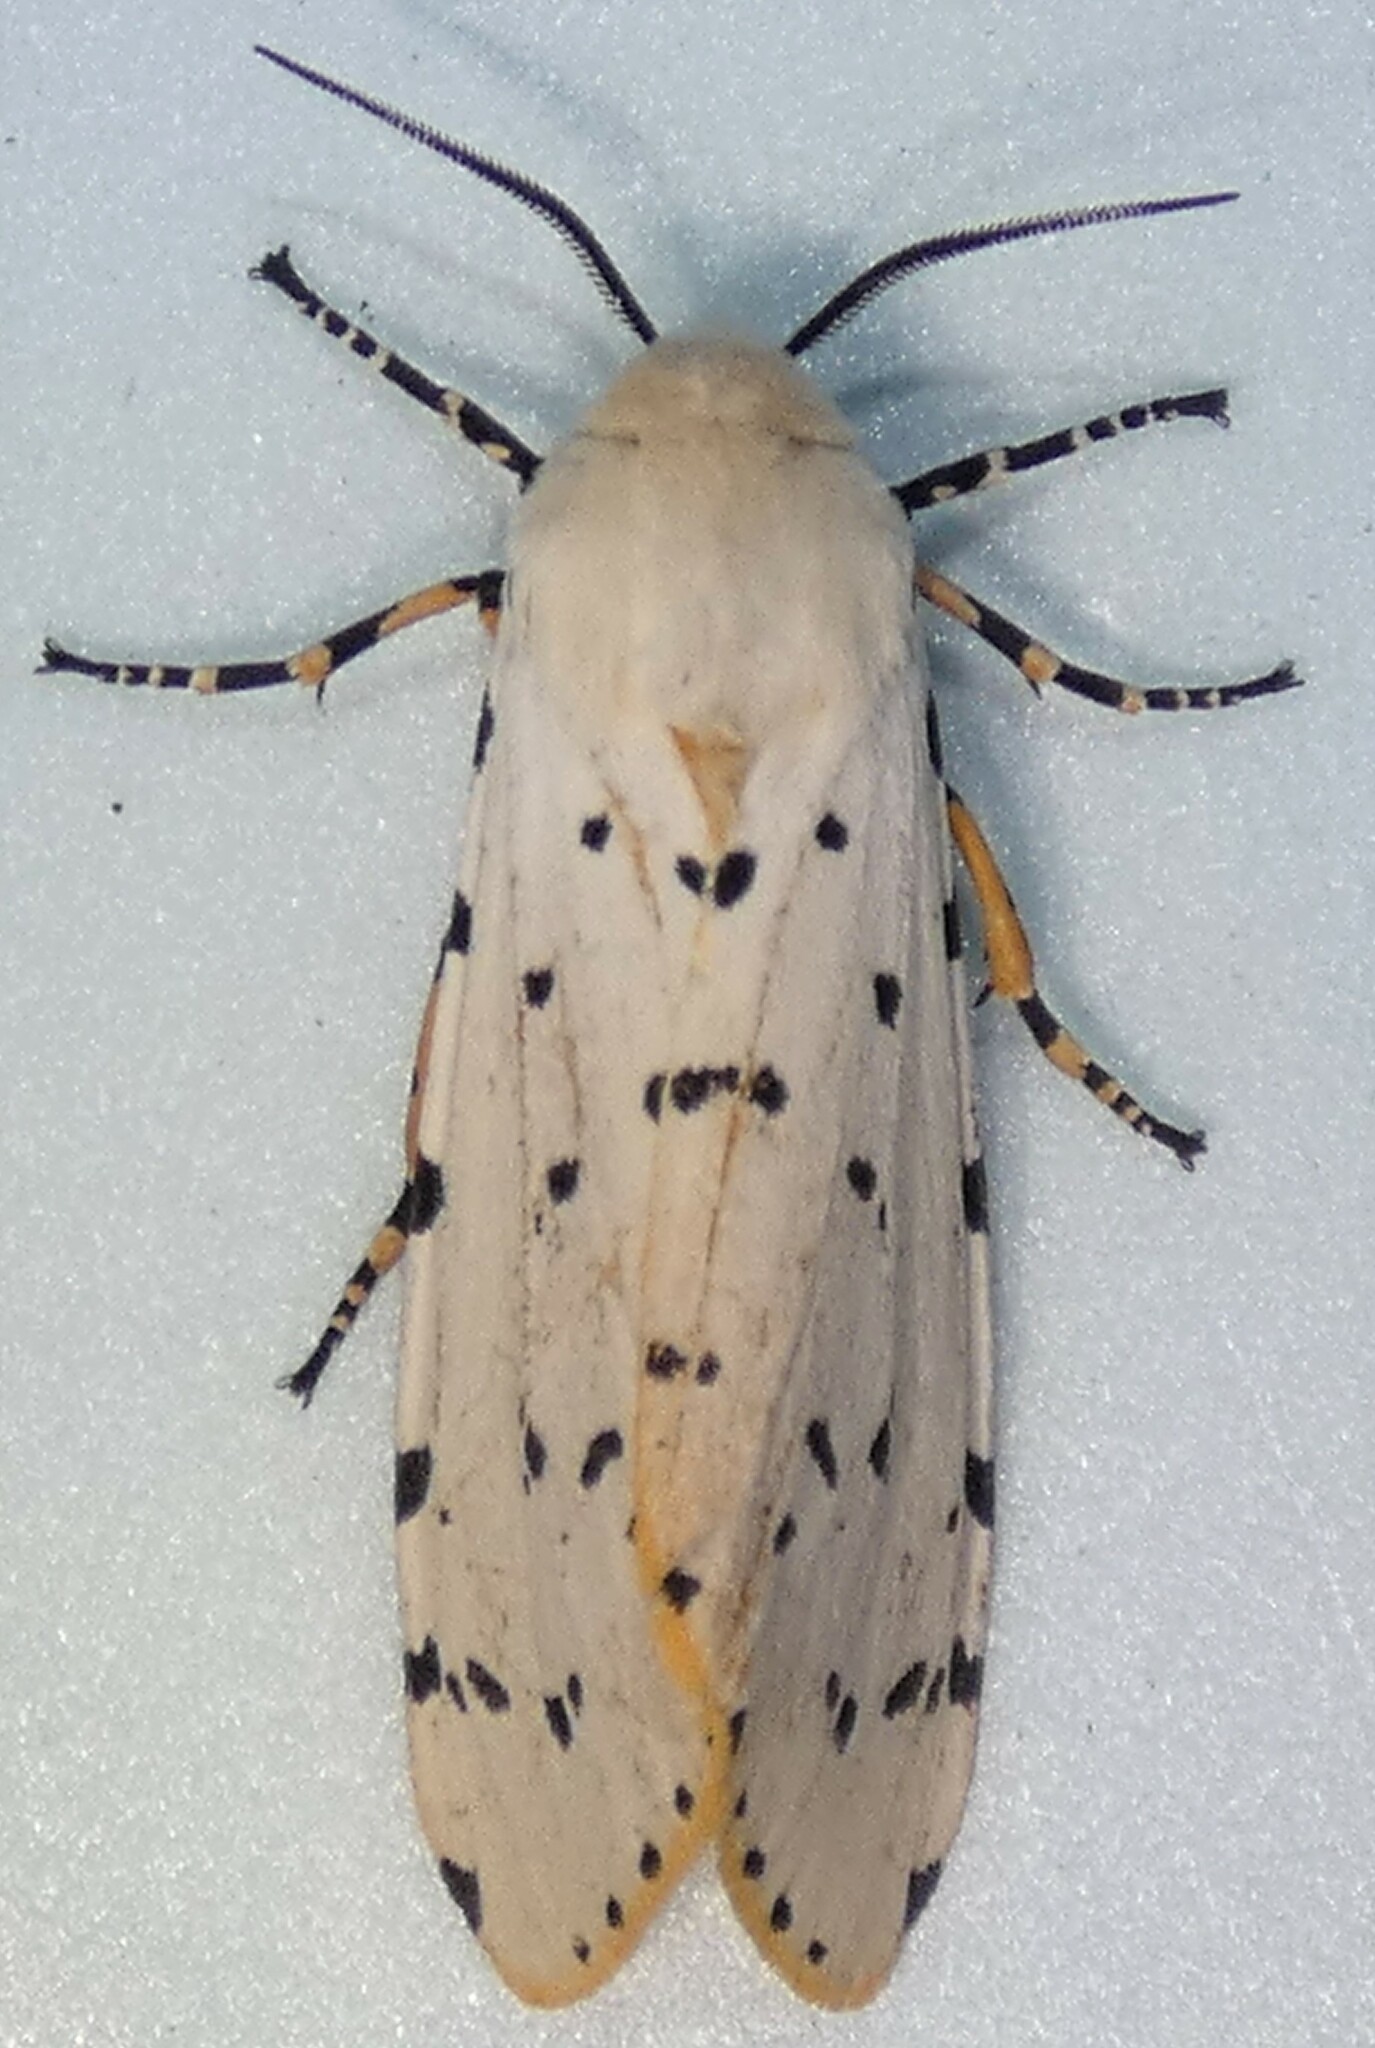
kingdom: Animalia
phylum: Arthropoda
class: Insecta
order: Lepidoptera
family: Erebidae
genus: Estigmene
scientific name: Estigmene acrea
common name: Salt marsh moth
